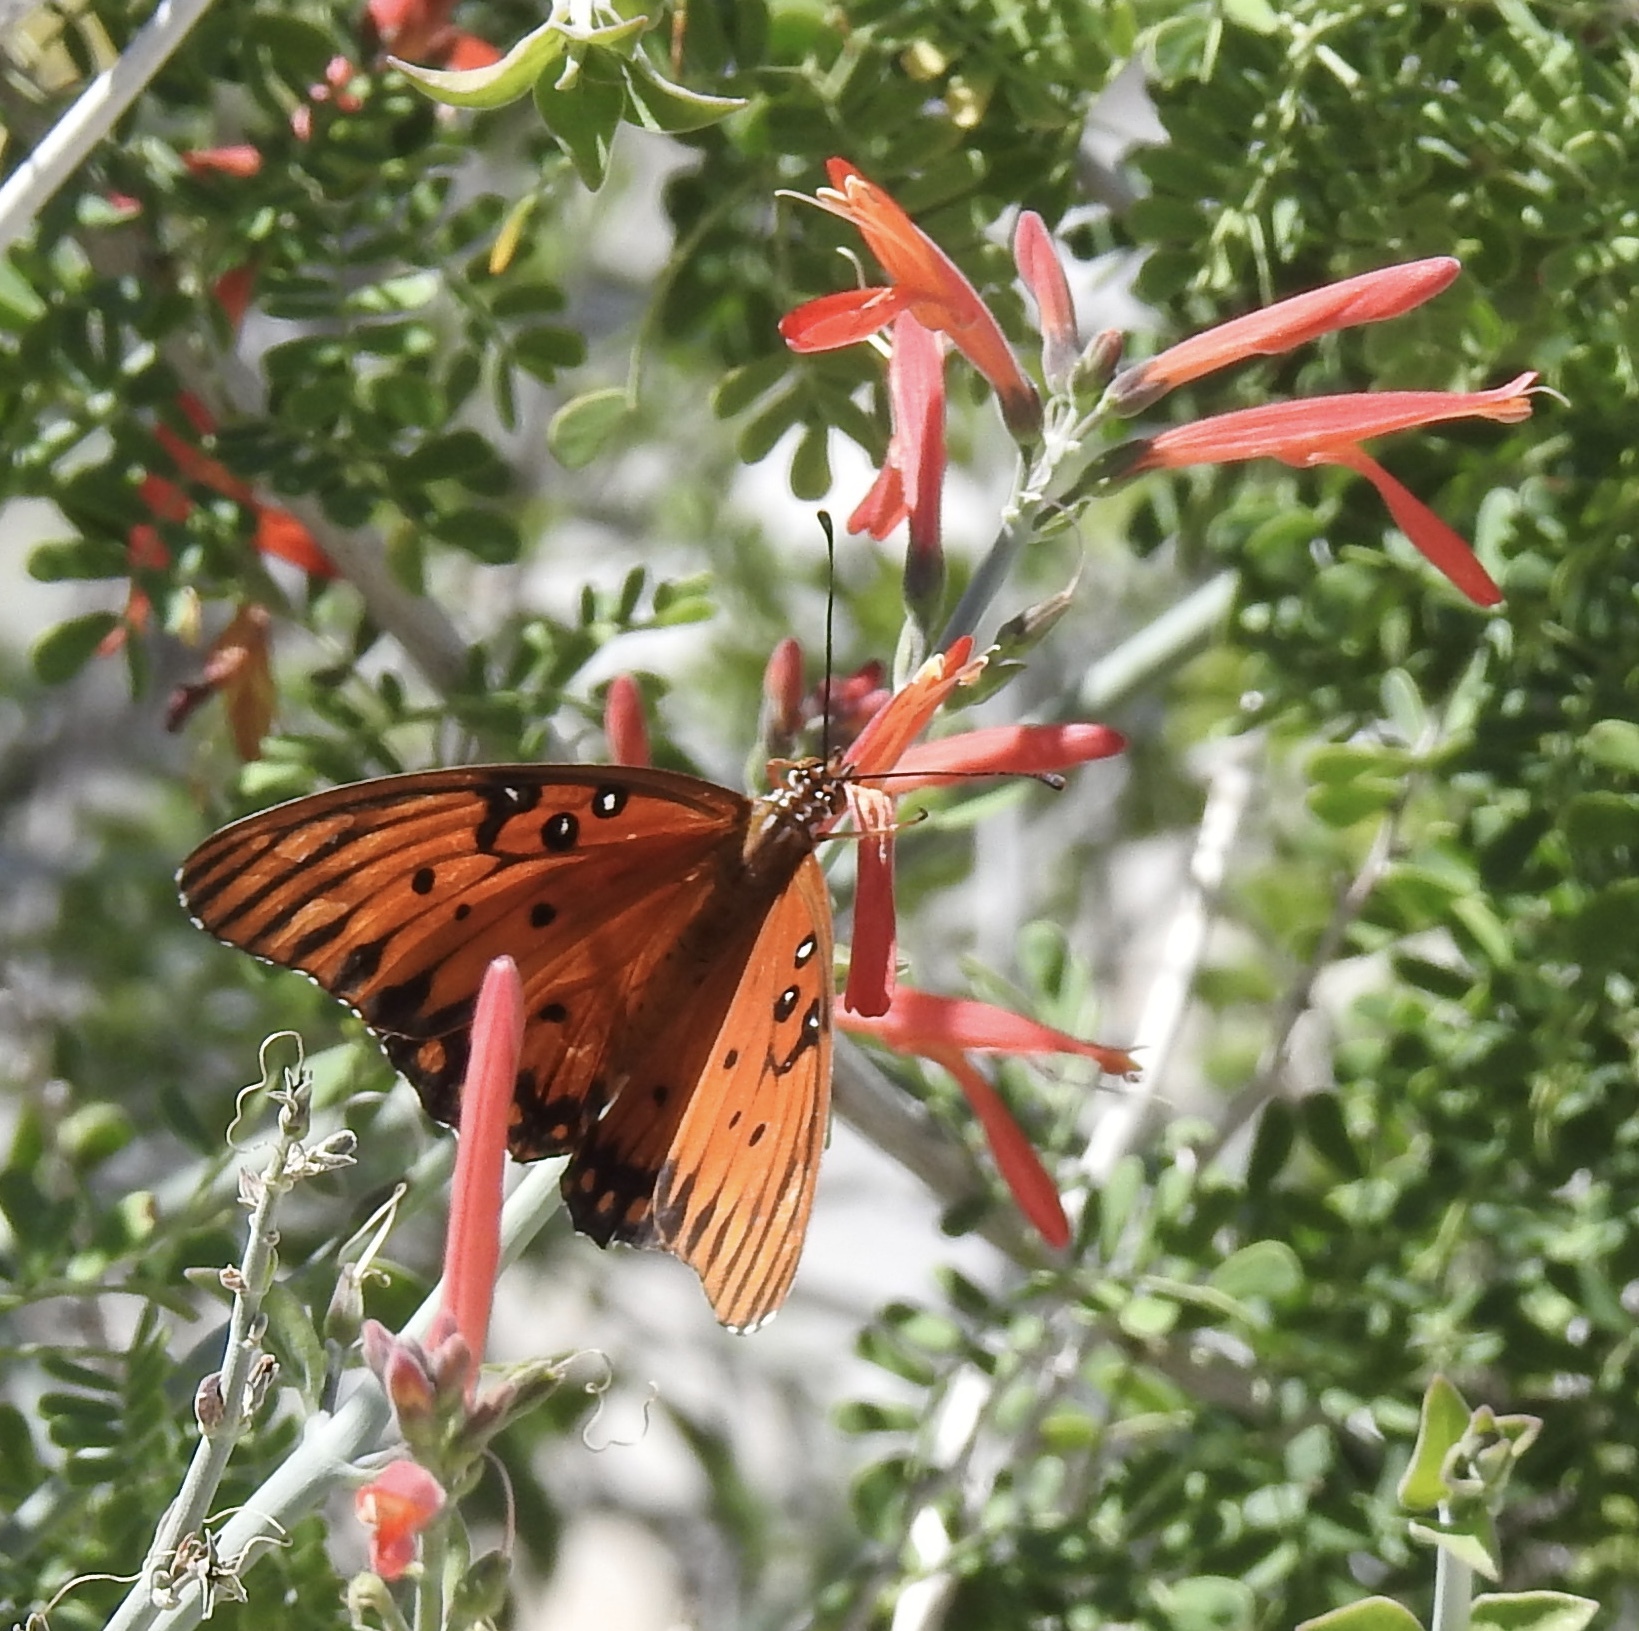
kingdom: Animalia
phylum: Arthropoda
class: Insecta
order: Lepidoptera
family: Nymphalidae
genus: Dione
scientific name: Dione vanillae
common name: Gulf fritillary
